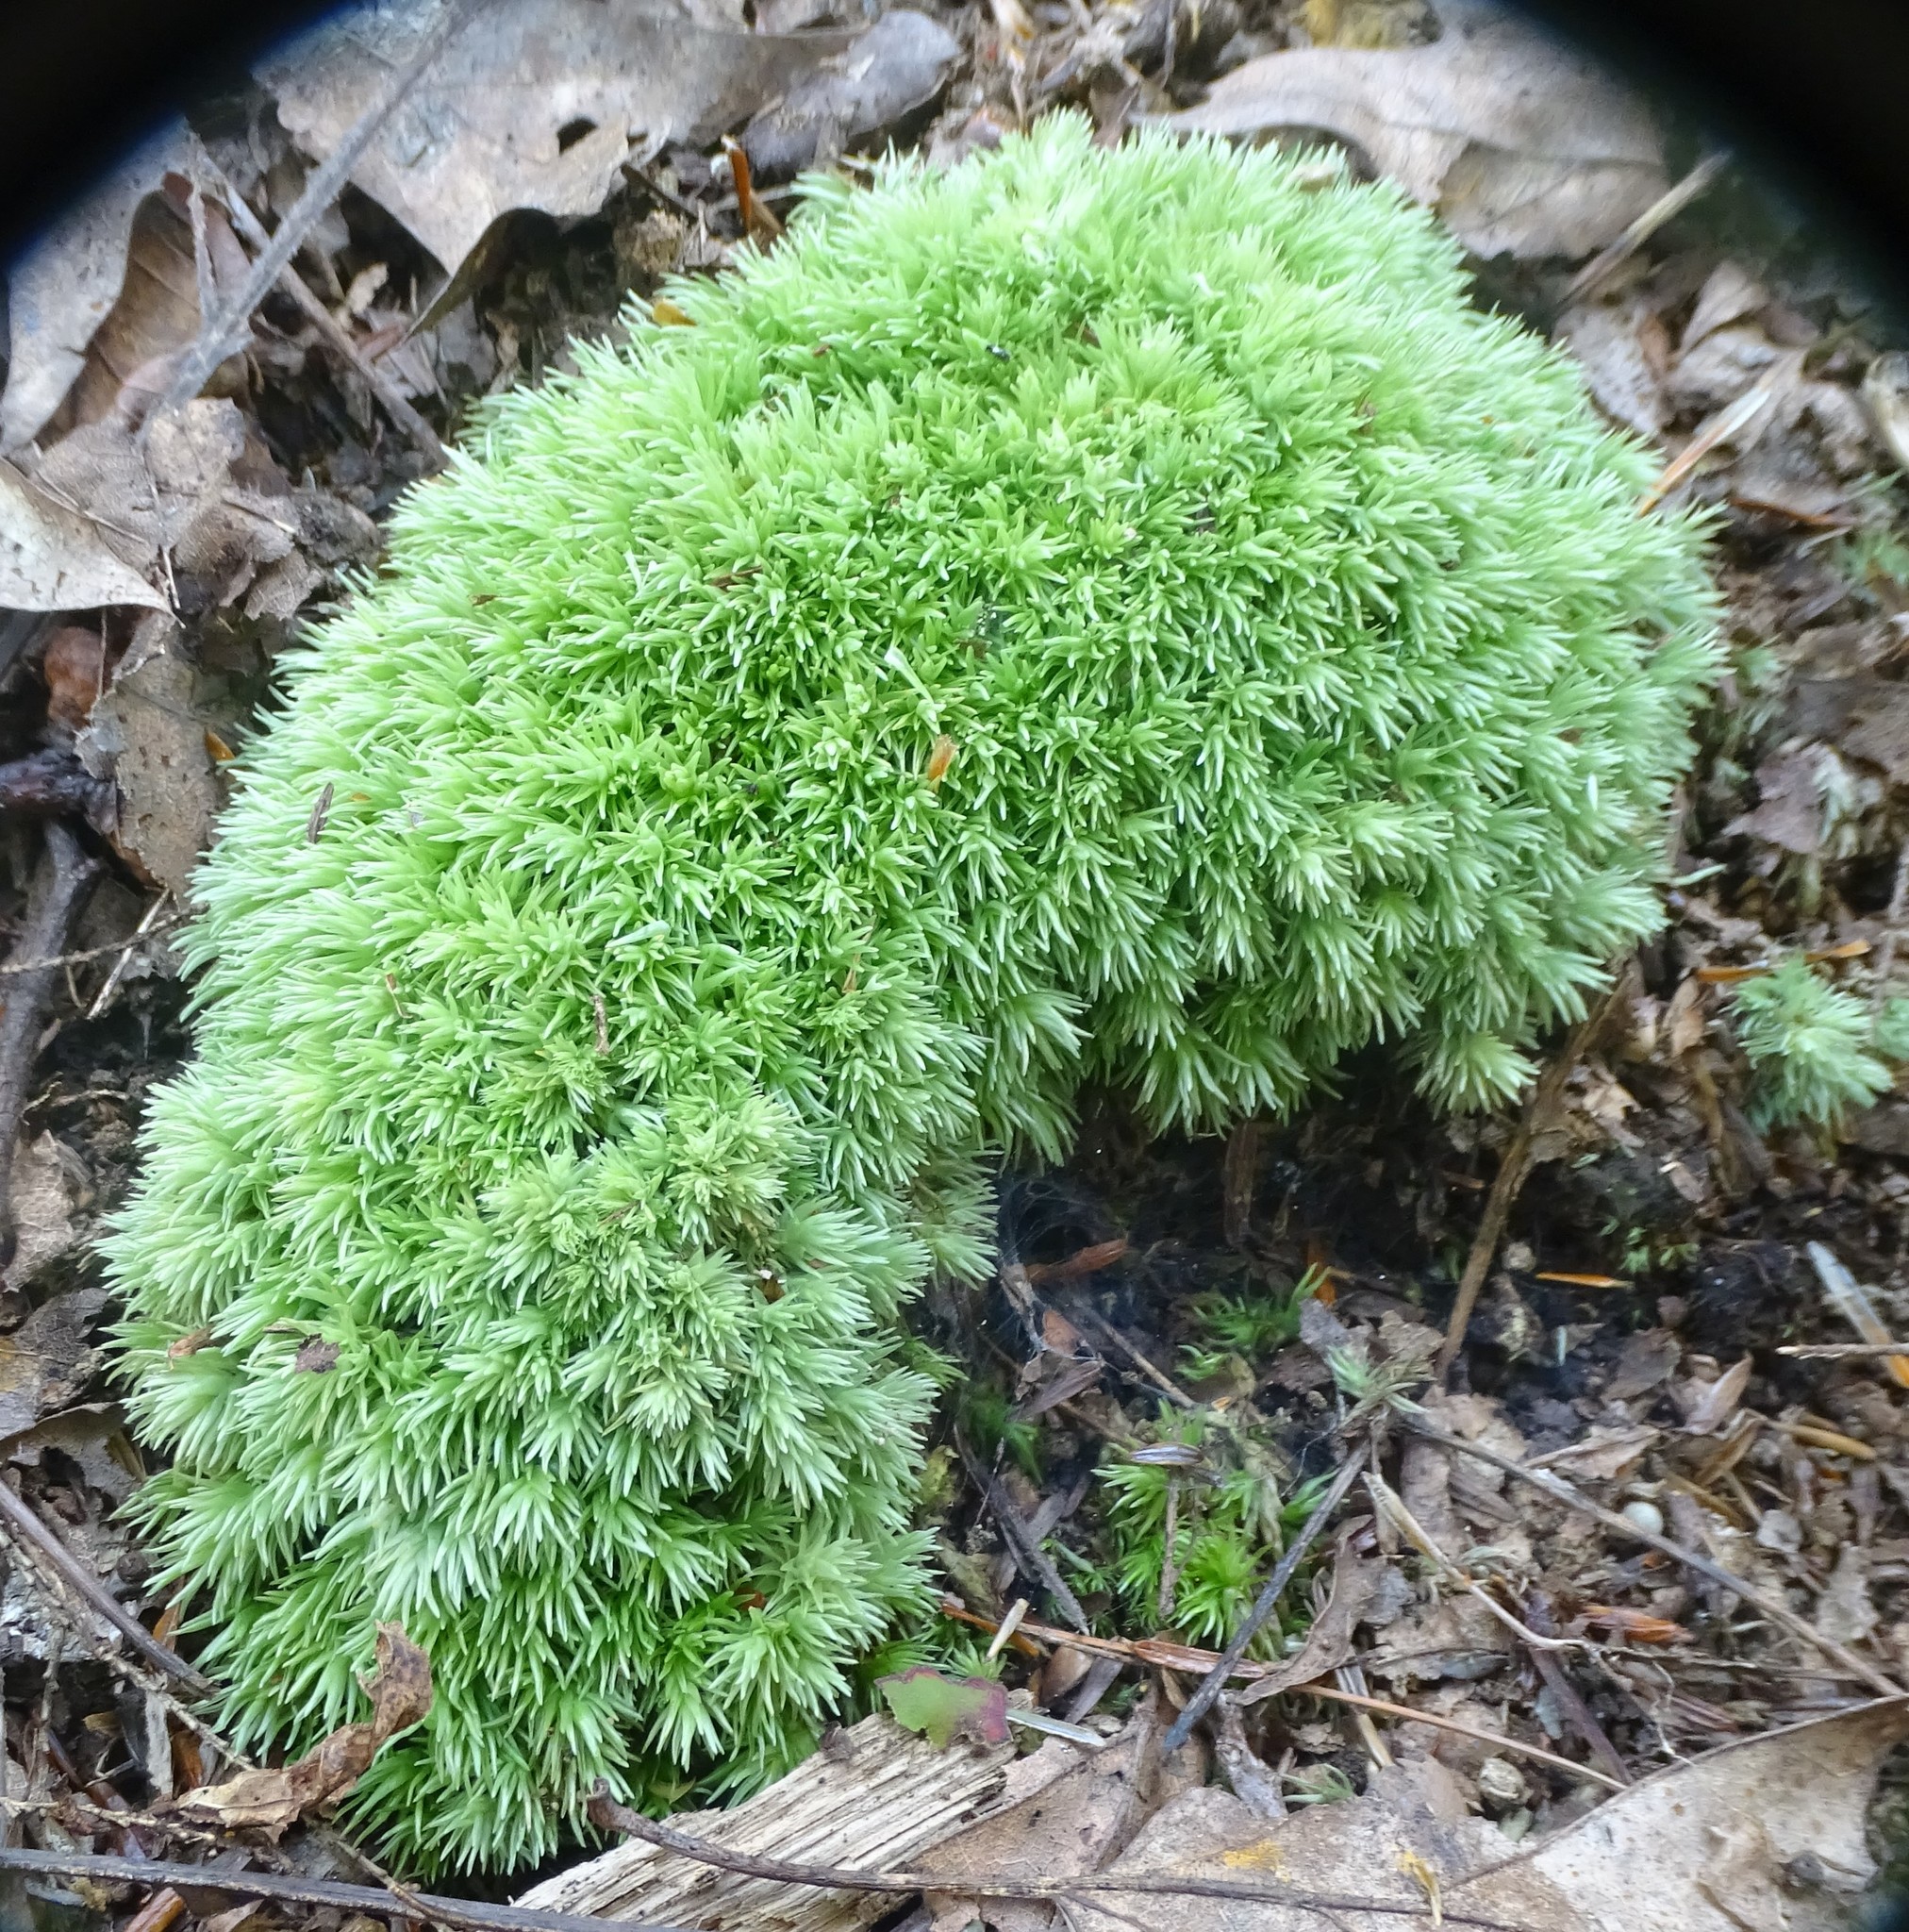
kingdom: Plantae
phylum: Bryophyta
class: Bryopsida
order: Dicranales
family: Leucobryaceae
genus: Leucobryum
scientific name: Leucobryum glaucum
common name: Large white-moss
